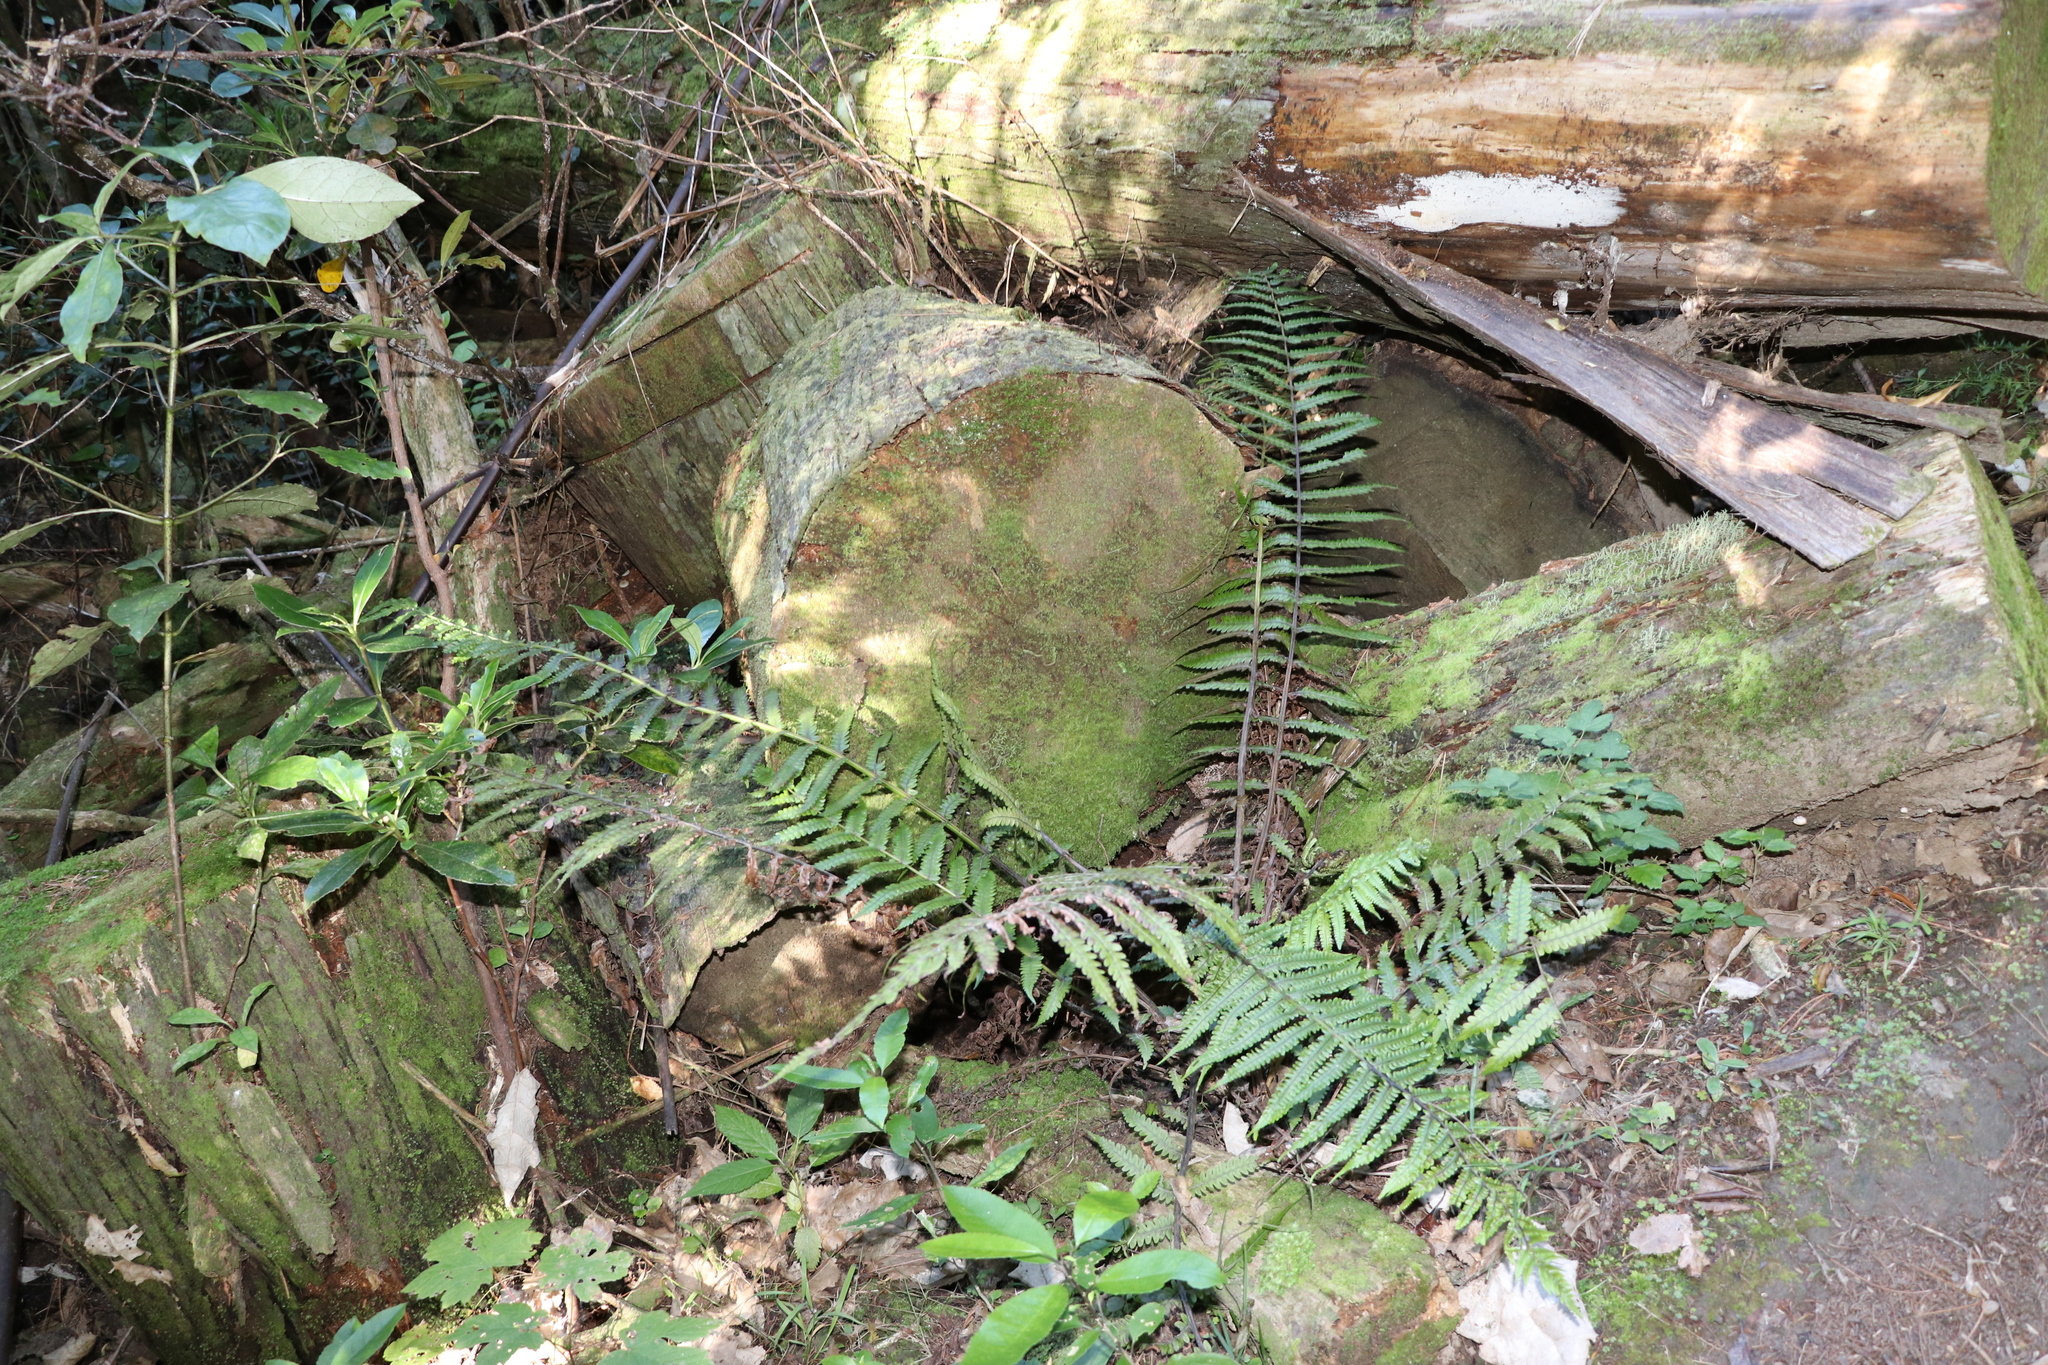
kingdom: Plantae
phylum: Tracheophyta
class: Polypodiopsida
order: Polypodiales
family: Thelypteridaceae
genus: Pakau
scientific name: Pakau pennigera
